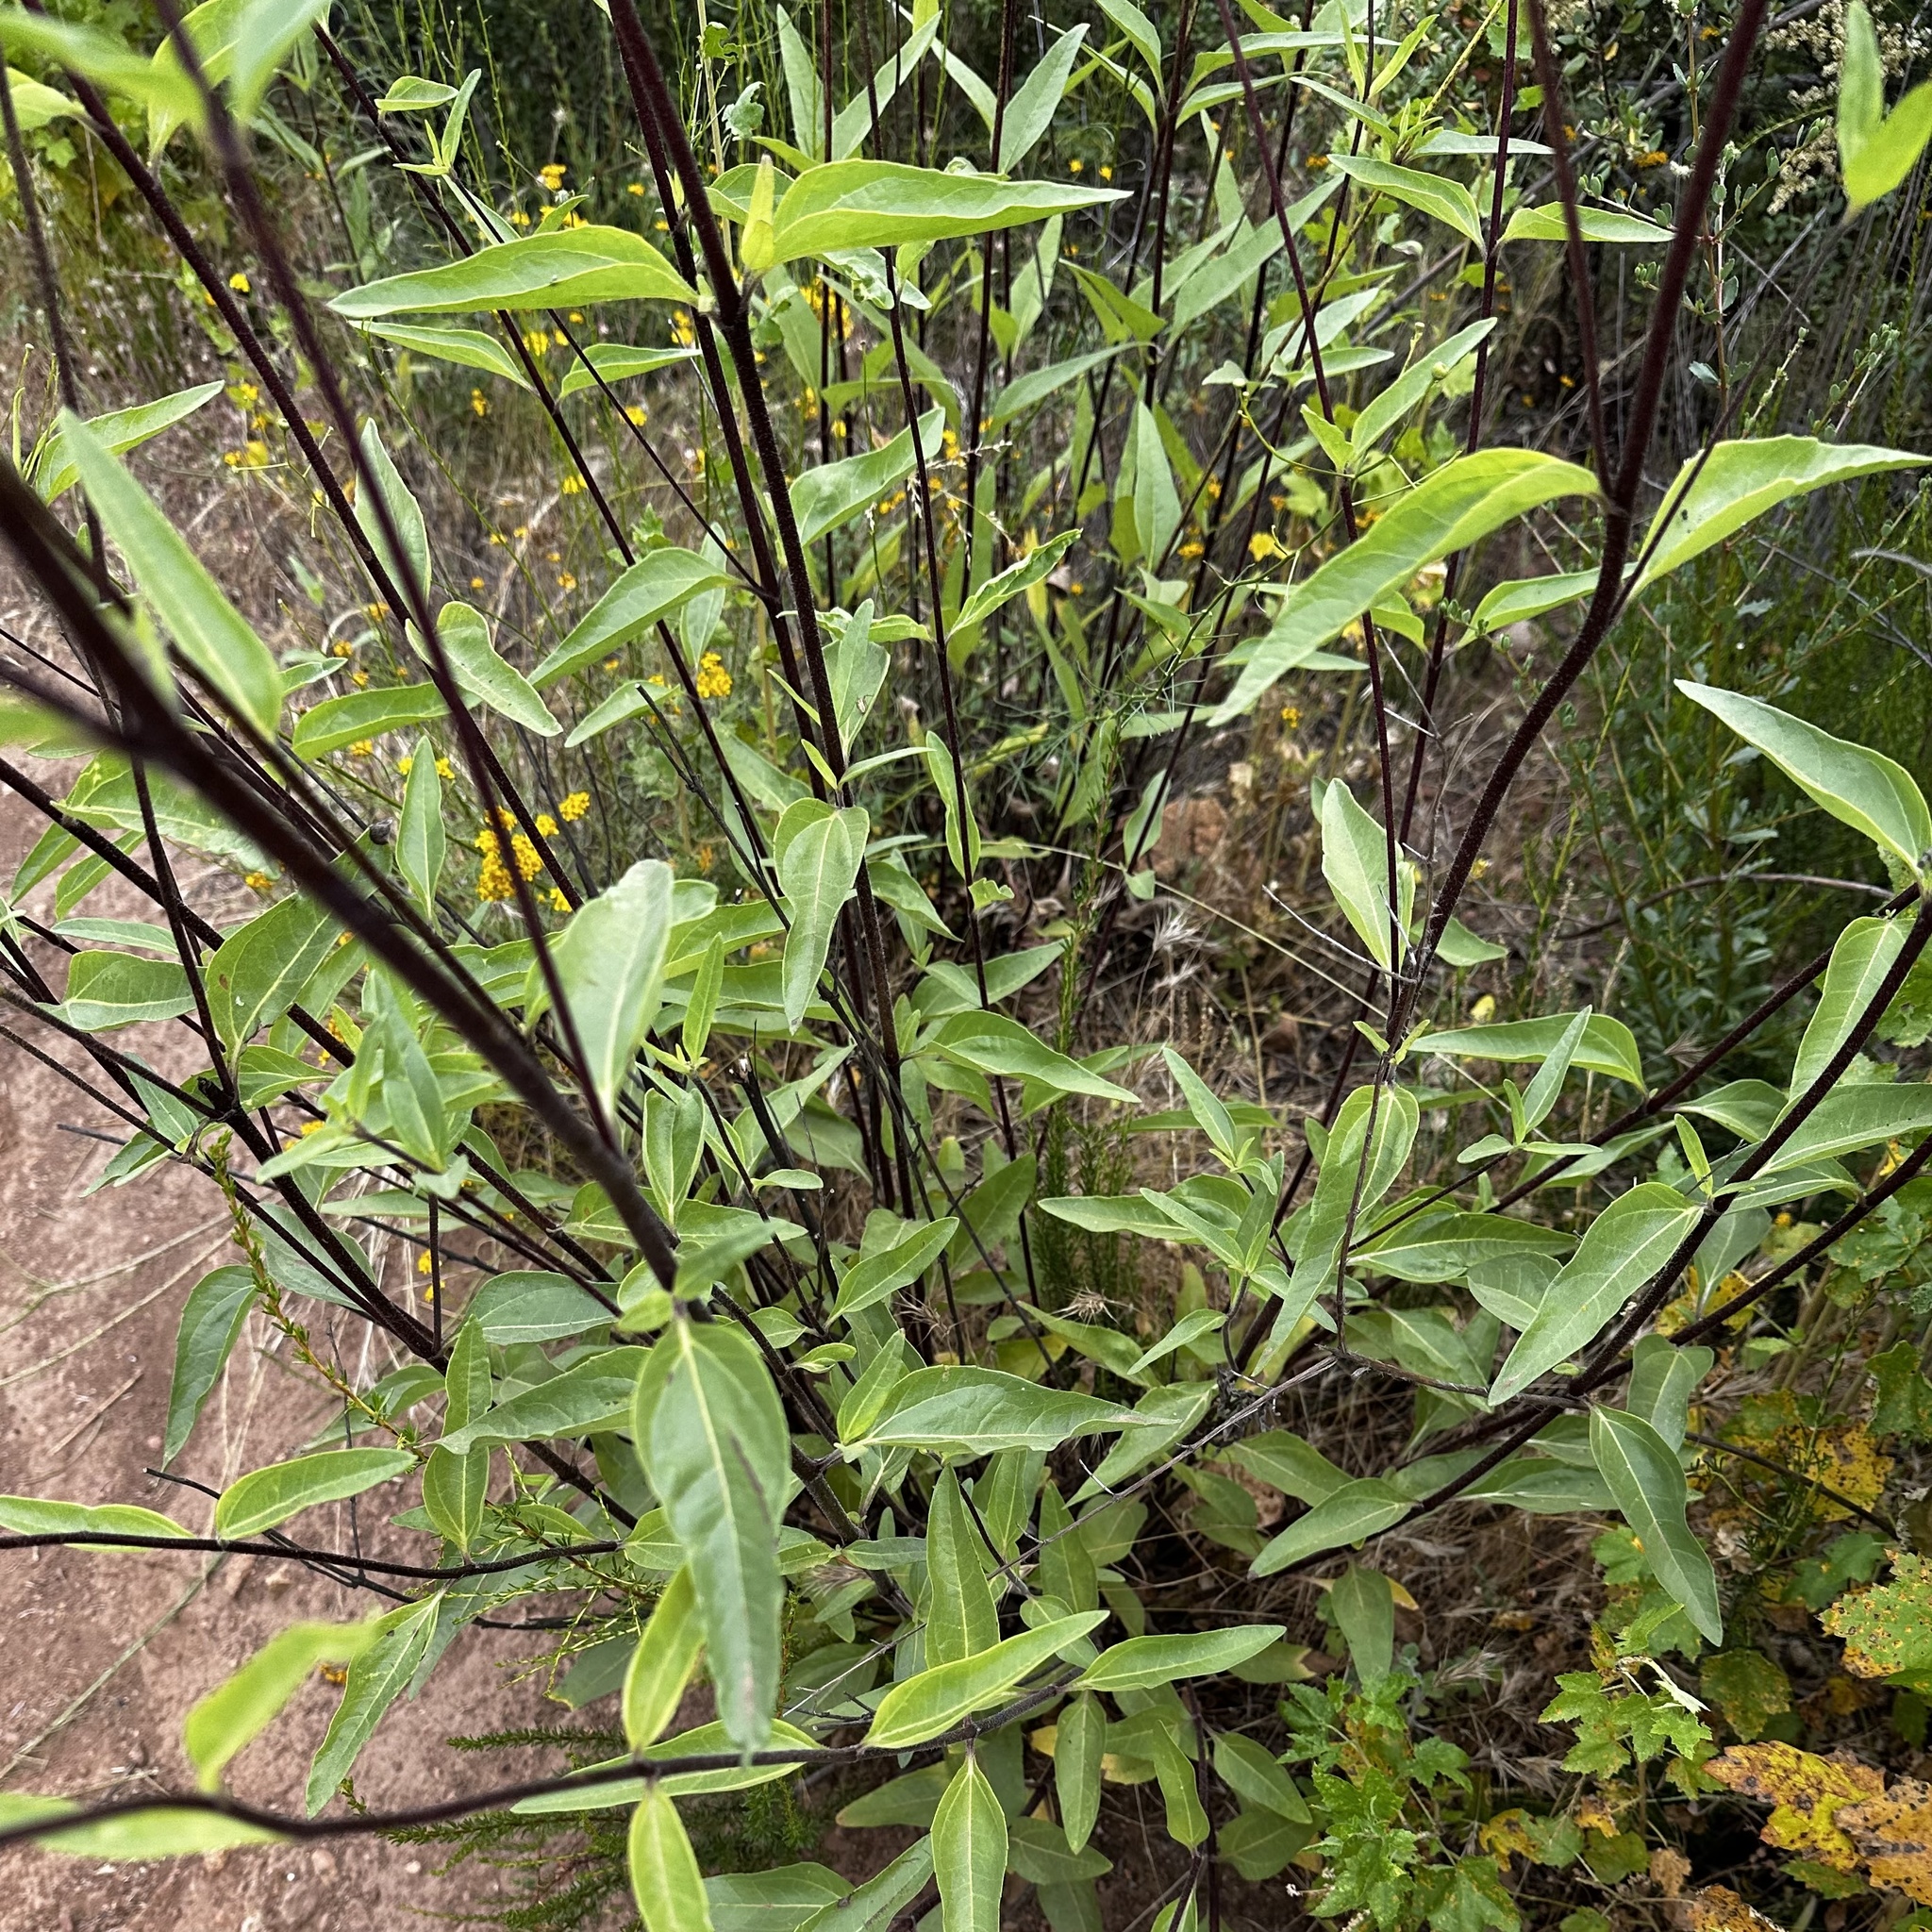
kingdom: Plantae
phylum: Tracheophyta
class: Magnoliopsida
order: Asterales
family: Asteraceae
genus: Helianthus
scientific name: Helianthus gracilentus
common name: Slender sunflower
